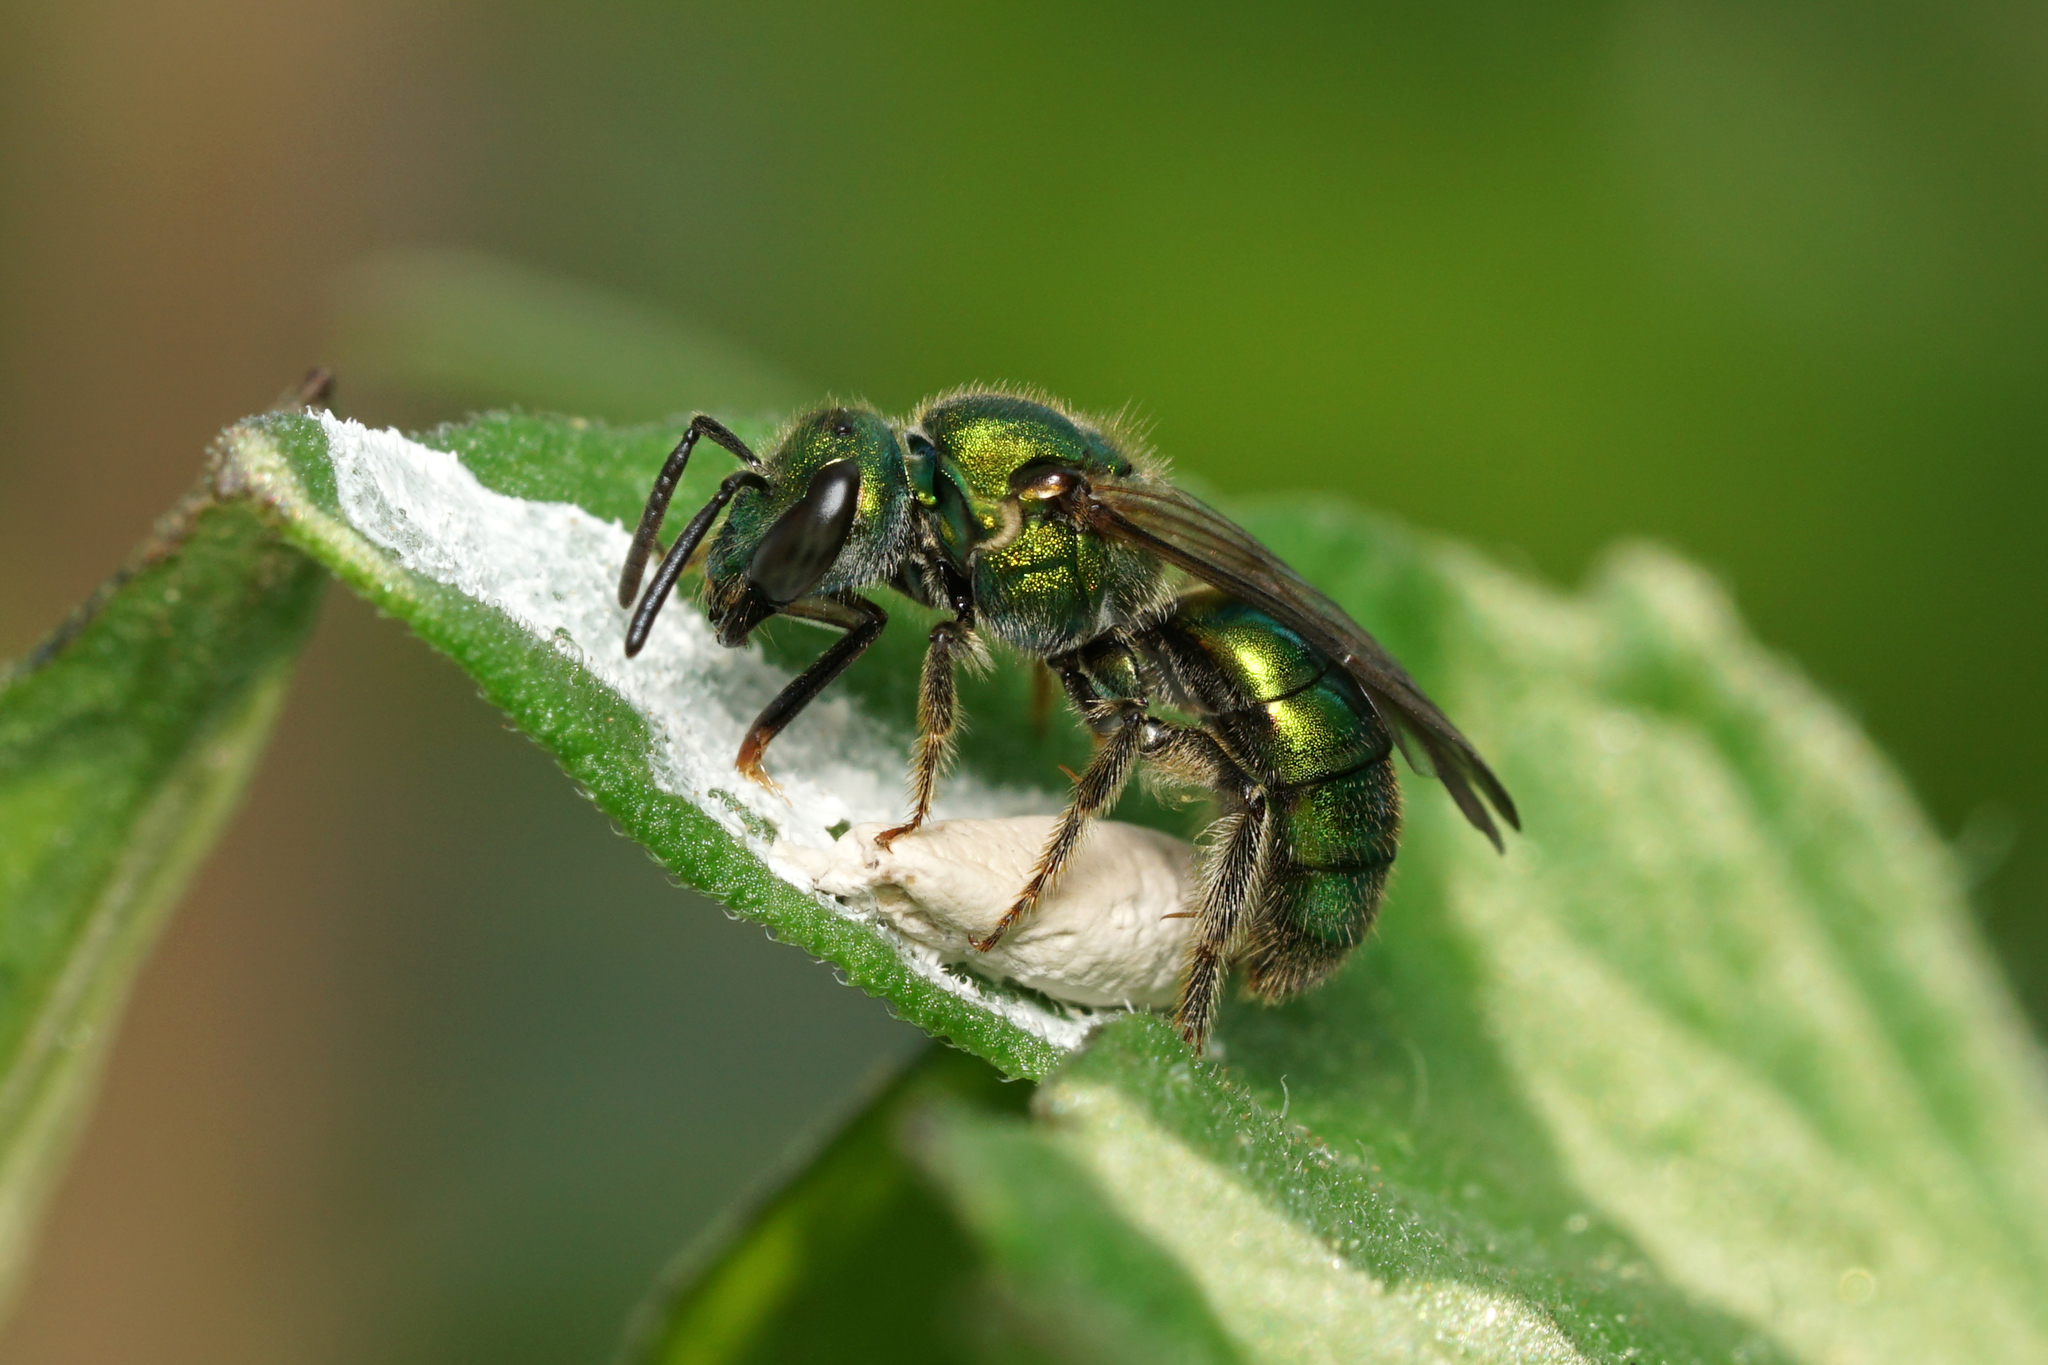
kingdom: Animalia
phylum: Arthropoda
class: Insecta
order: Hymenoptera
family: Halictidae
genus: Augochlora
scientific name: Augochlora pura
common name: Pure green sweat bee
